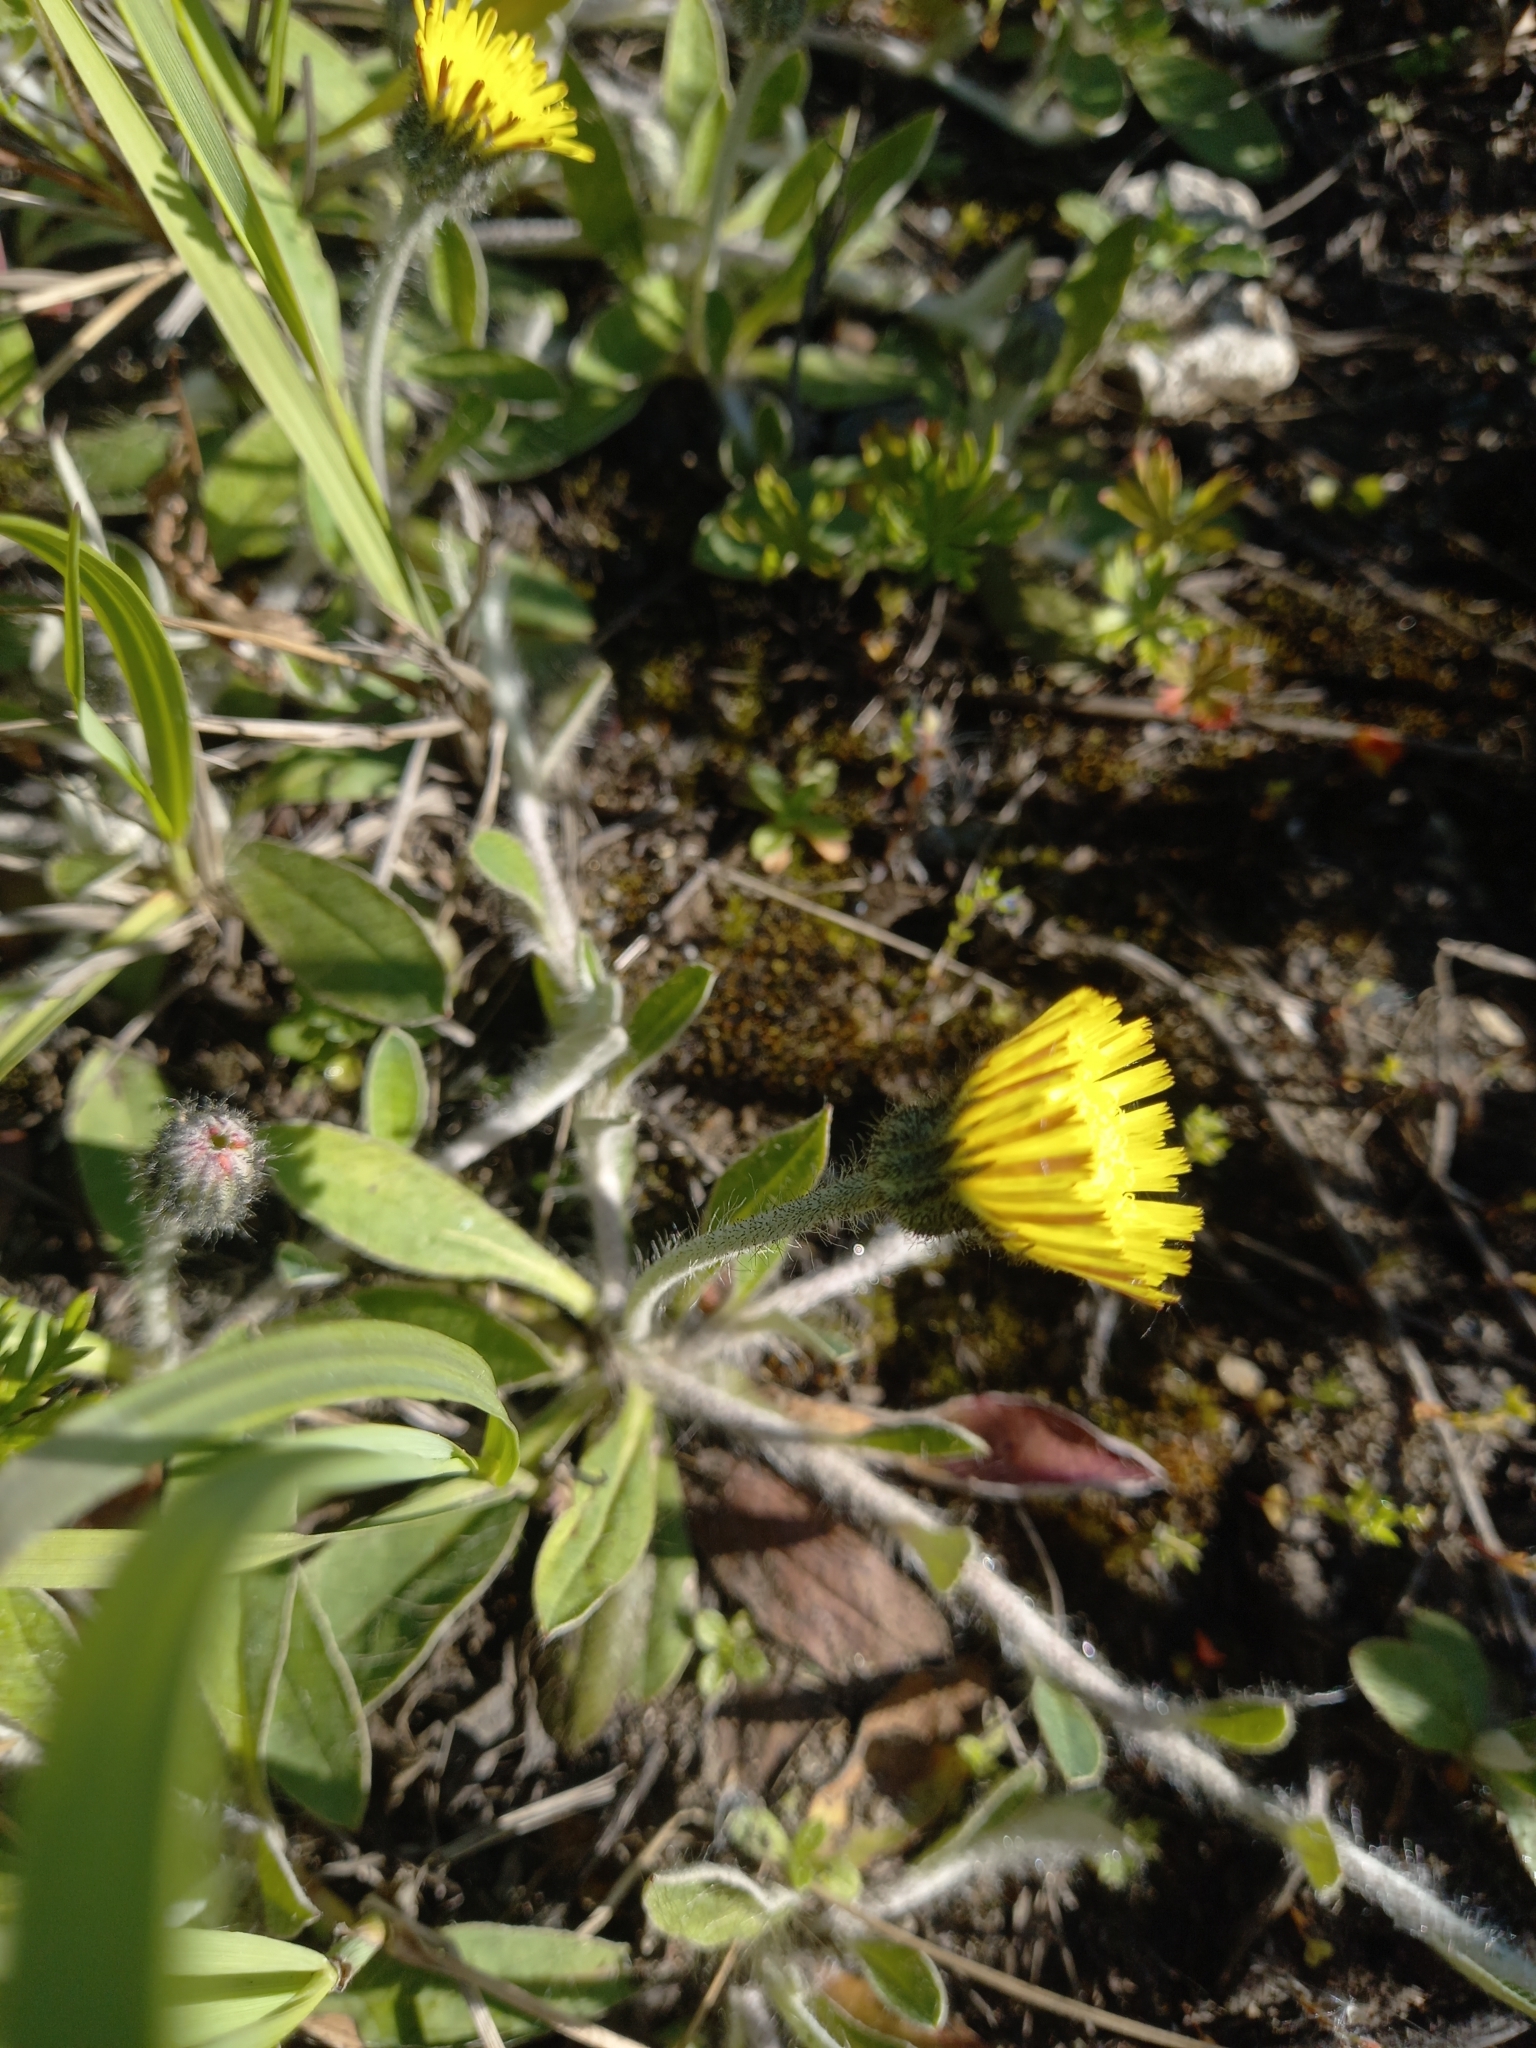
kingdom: Plantae
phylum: Tracheophyta
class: Magnoliopsida
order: Asterales
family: Asteraceae
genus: Pilosella
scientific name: Pilosella officinarum
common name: Mouse-ear hawkweed
